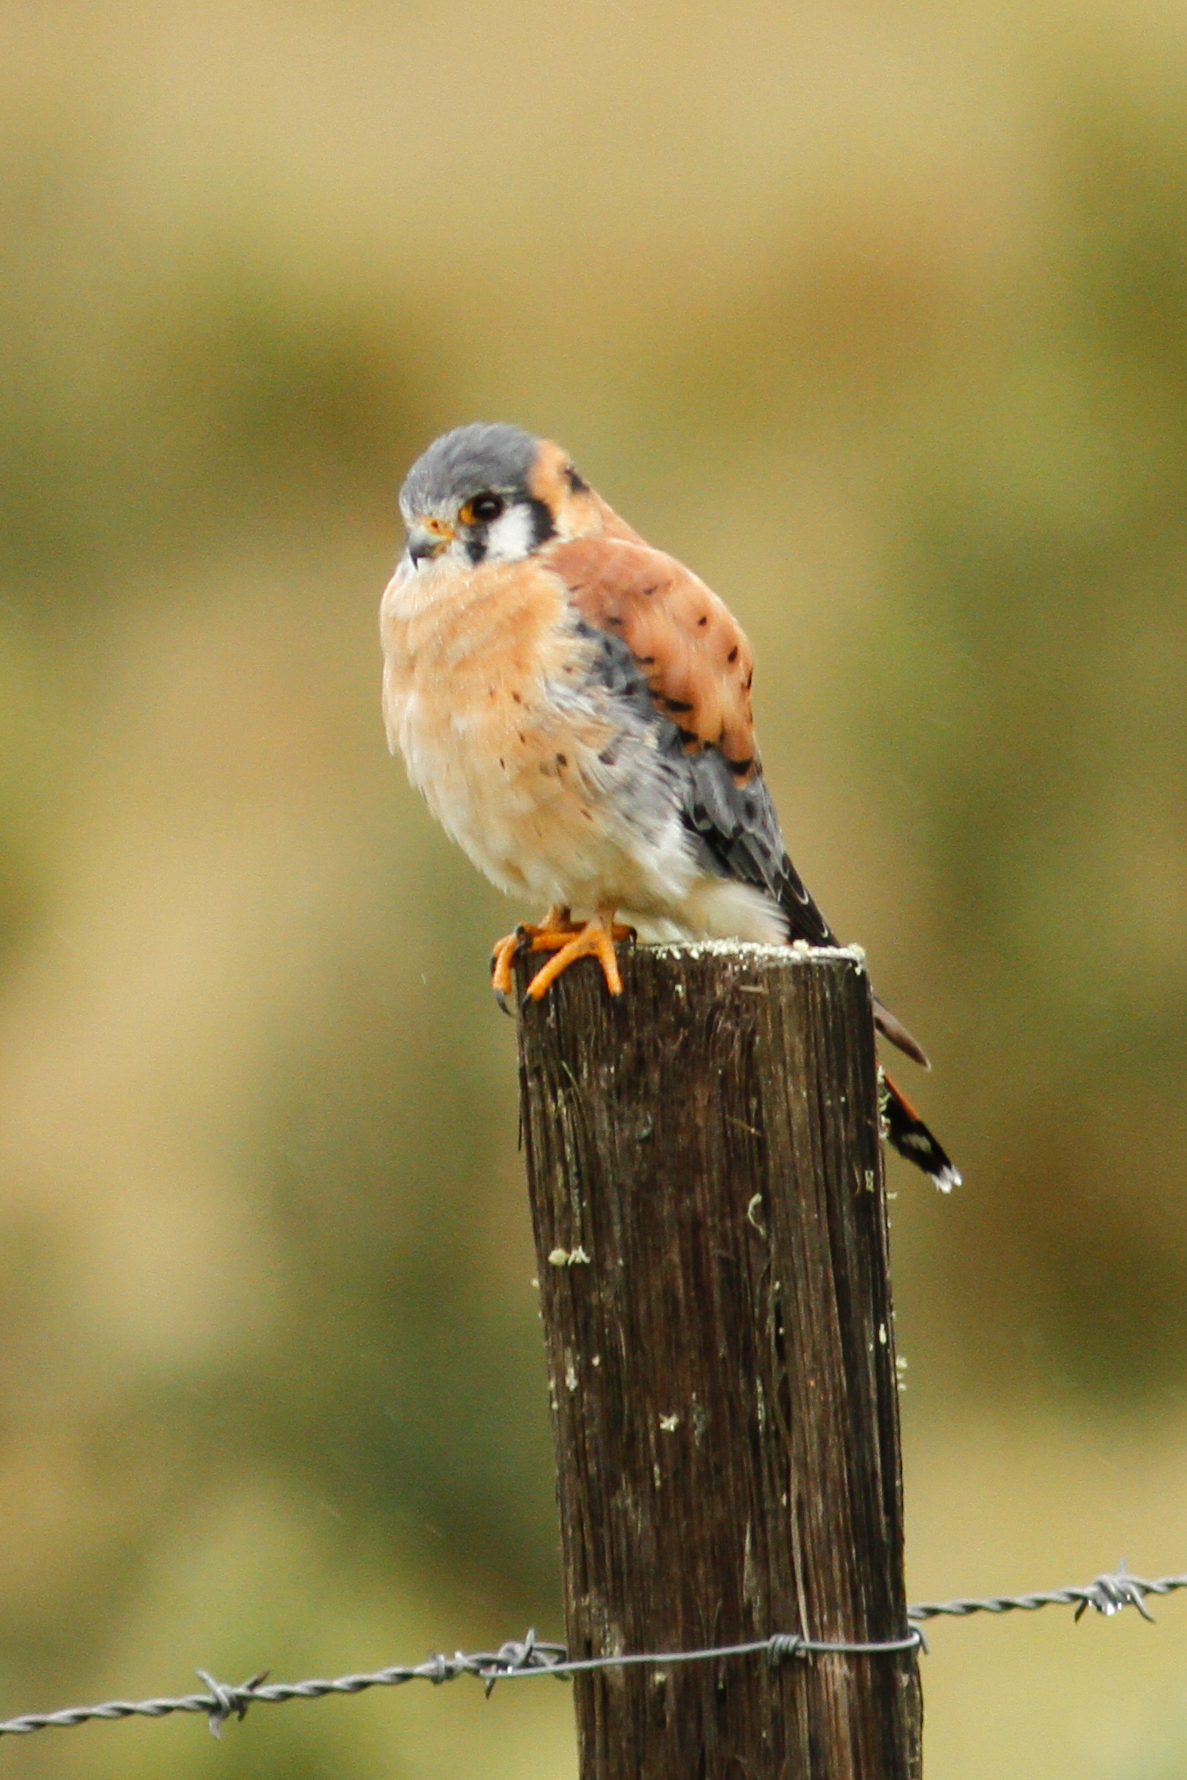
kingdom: Animalia
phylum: Chordata
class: Aves
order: Falconiformes
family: Falconidae
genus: Falco
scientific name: Falco sparverius
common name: American kestrel
